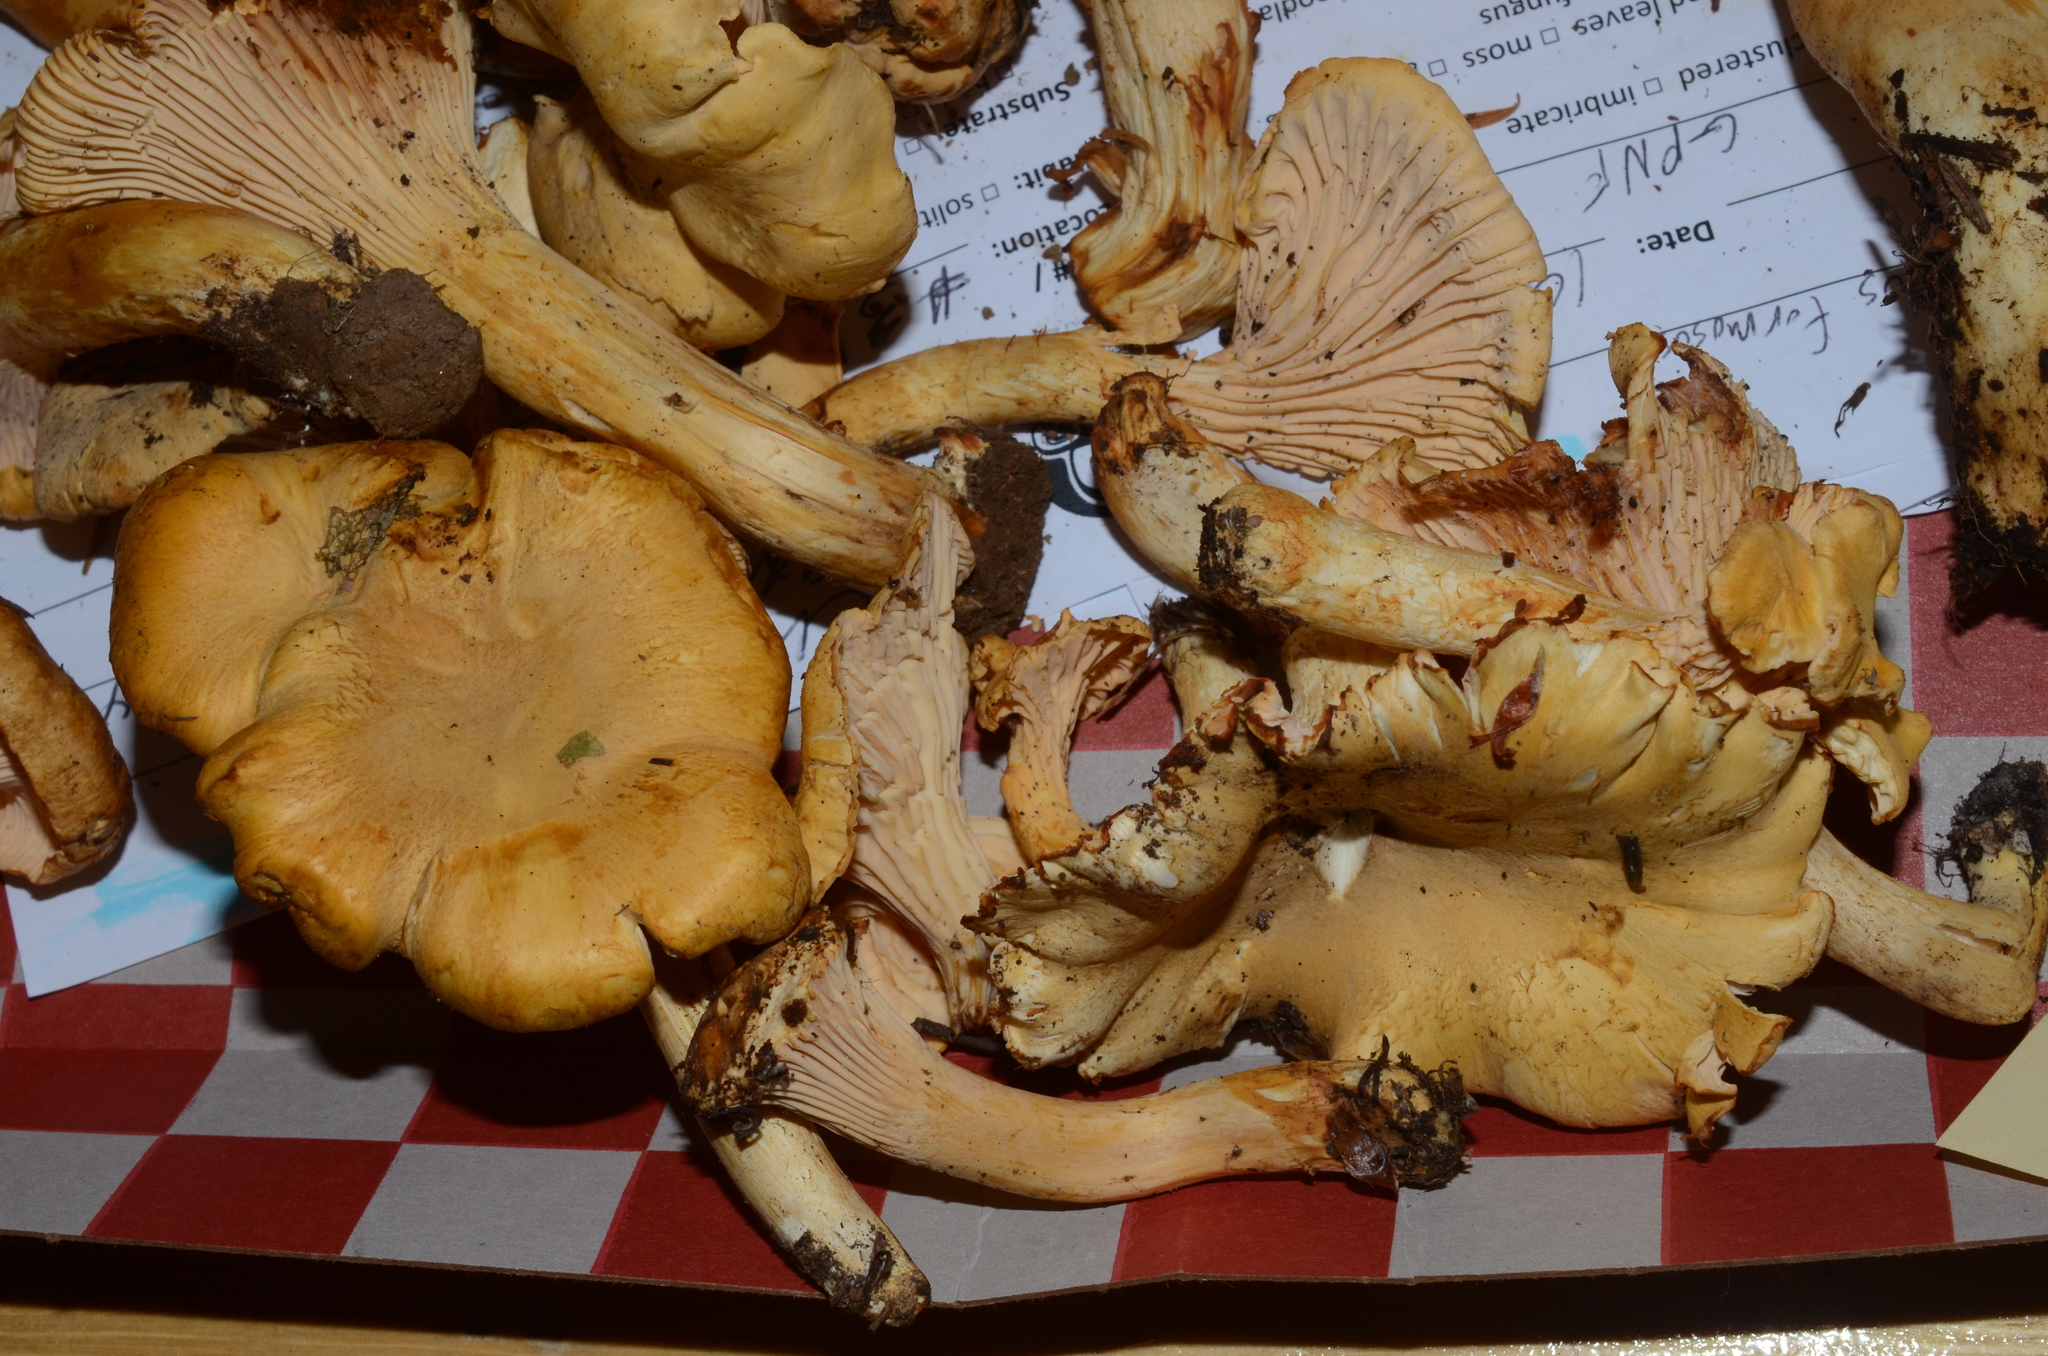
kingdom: Fungi
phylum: Basidiomycota
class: Agaricomycetes
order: Cantharellales
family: Hydnaceae
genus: Cantharellus
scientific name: Cantharellus formosus
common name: Pacific golden chanterelle
